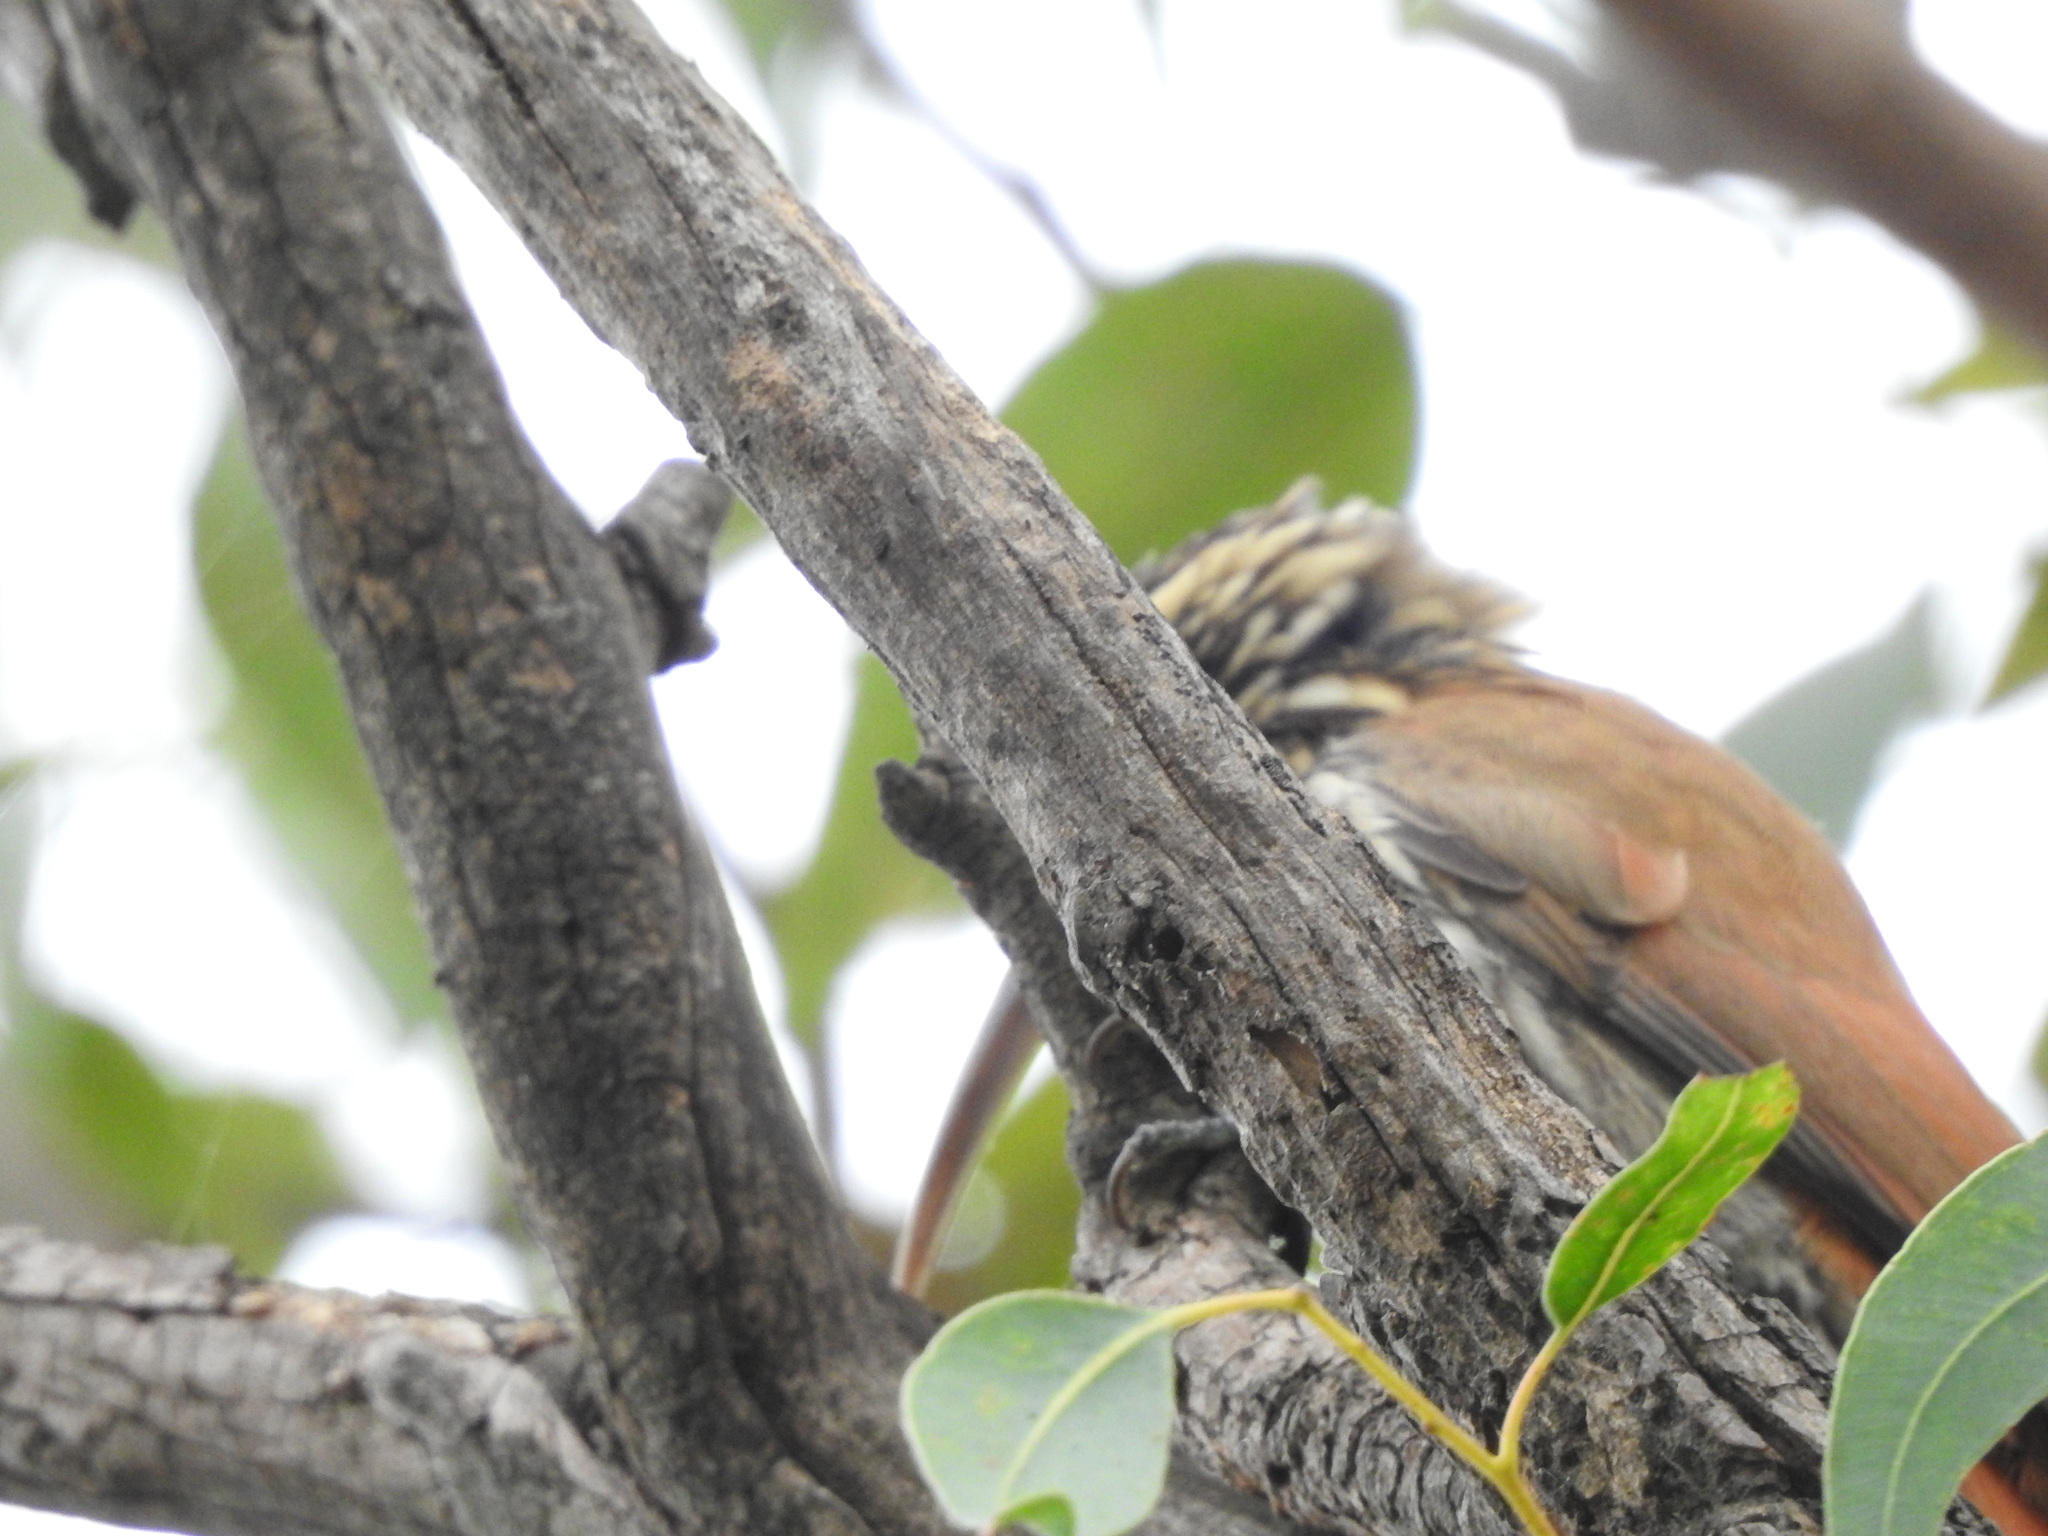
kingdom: Animalia
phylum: Chordata
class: Aves
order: Passeriformes
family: Furnariidae
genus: Lepidocolaptes
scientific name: Lepidocolaptes angustirostris
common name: Narrow-billed woodcreeper
